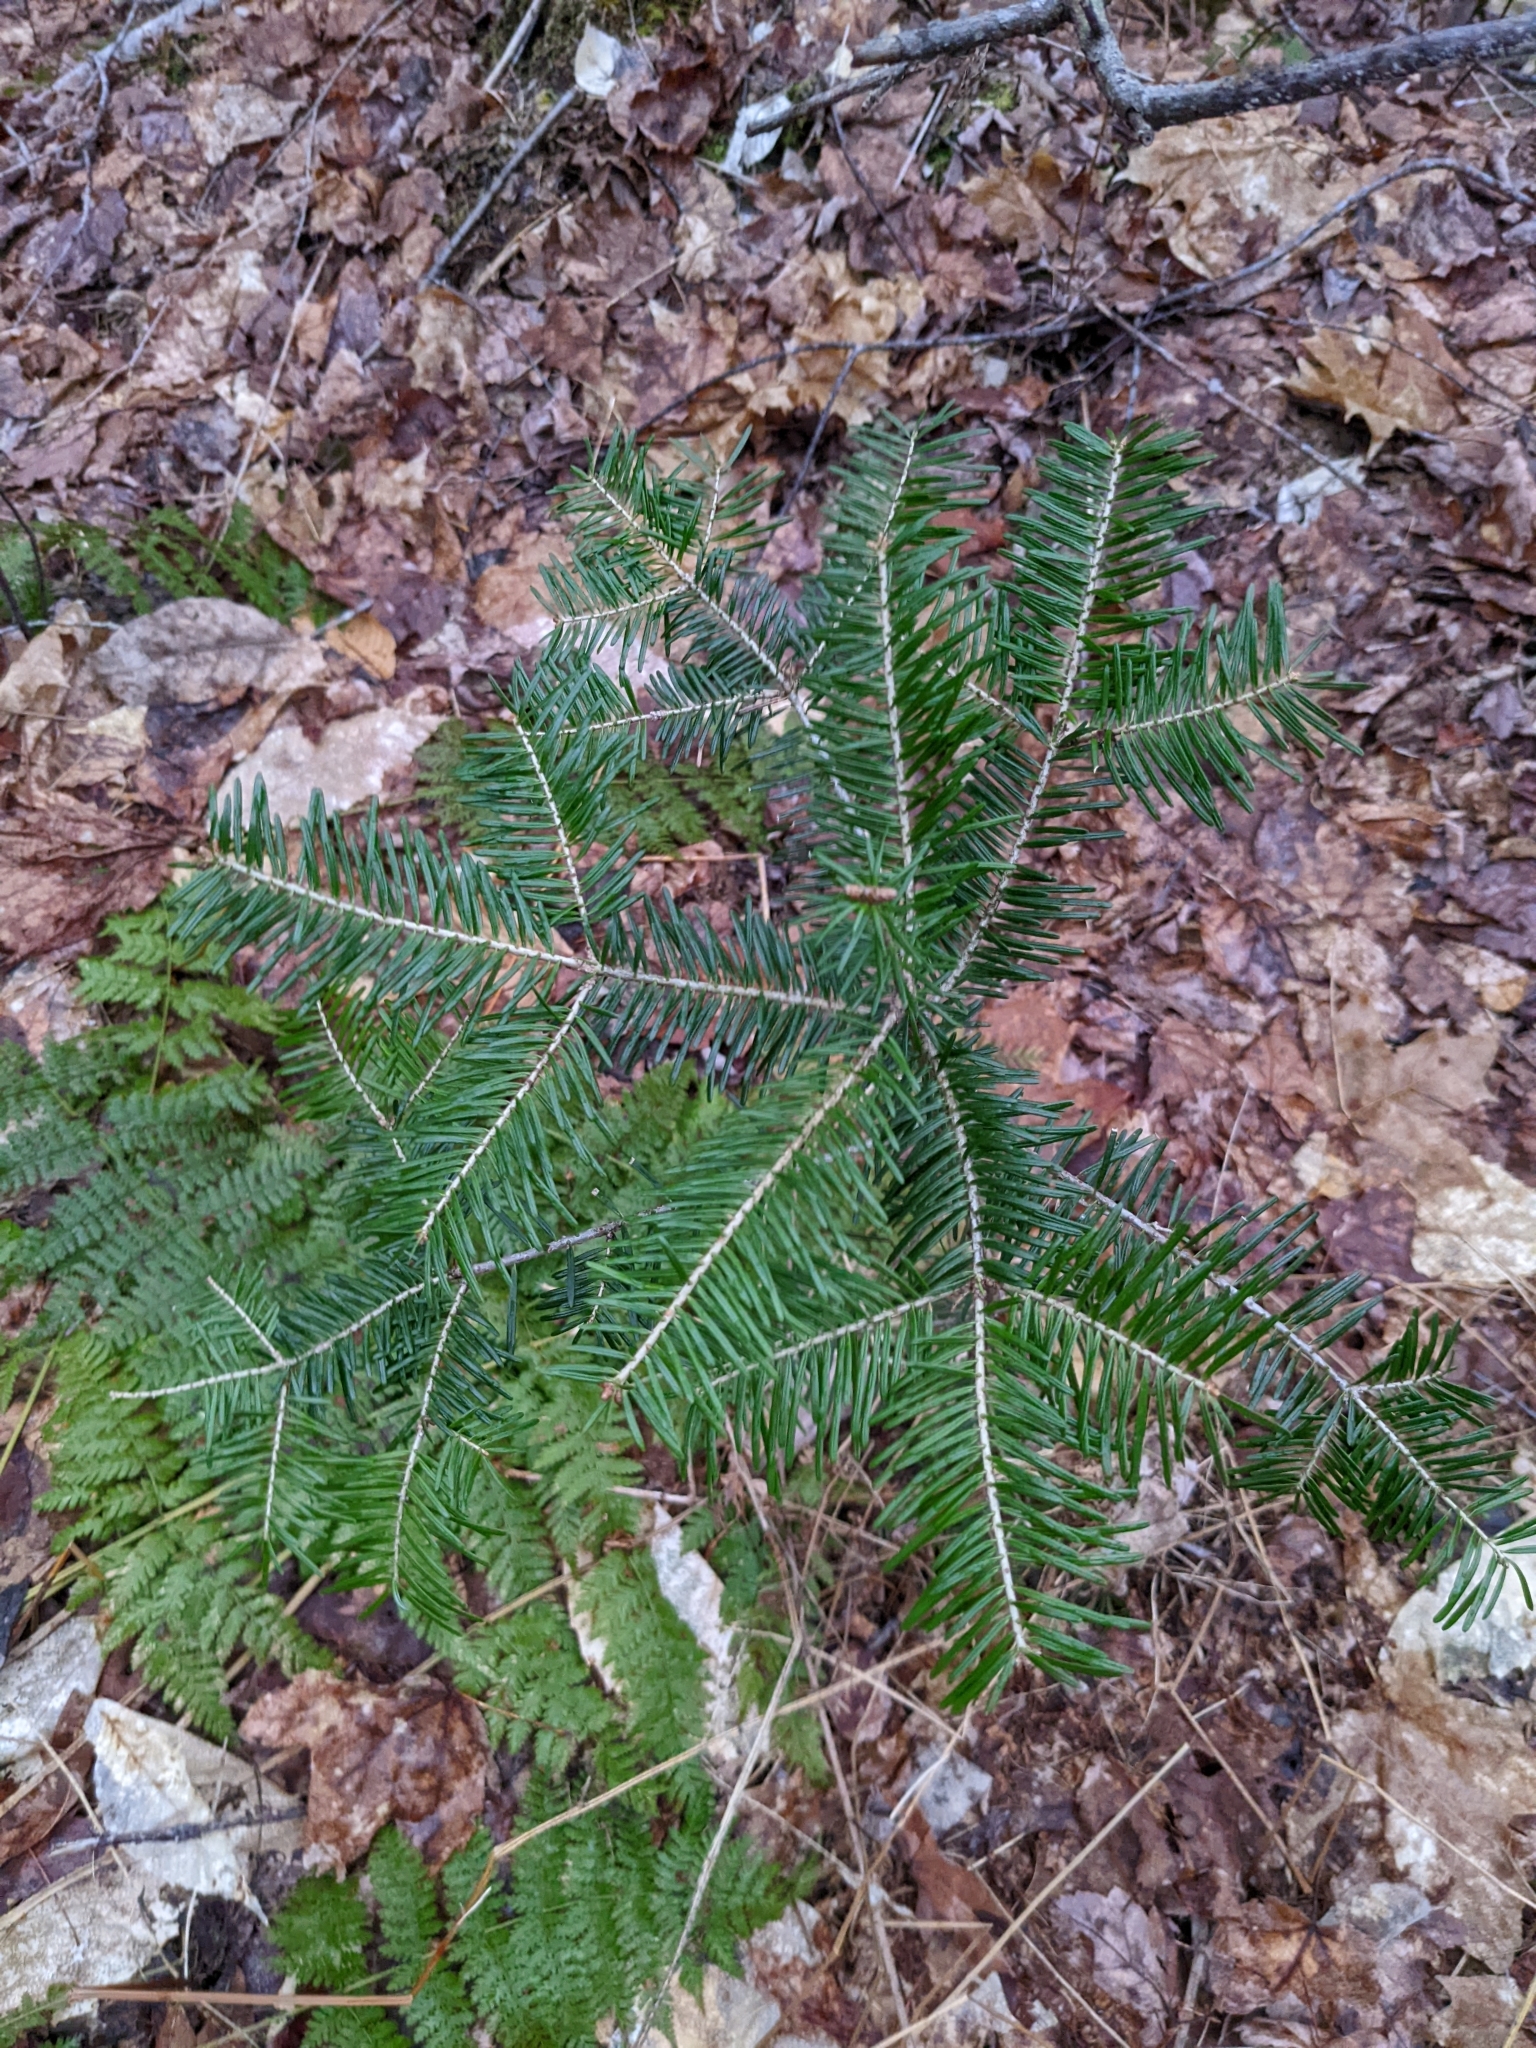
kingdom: Plantae
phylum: Tracheophyta
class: Pinopsida
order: Pinales
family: Pinaceae
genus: Abies
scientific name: Abies balsamea
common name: Balsam fir
